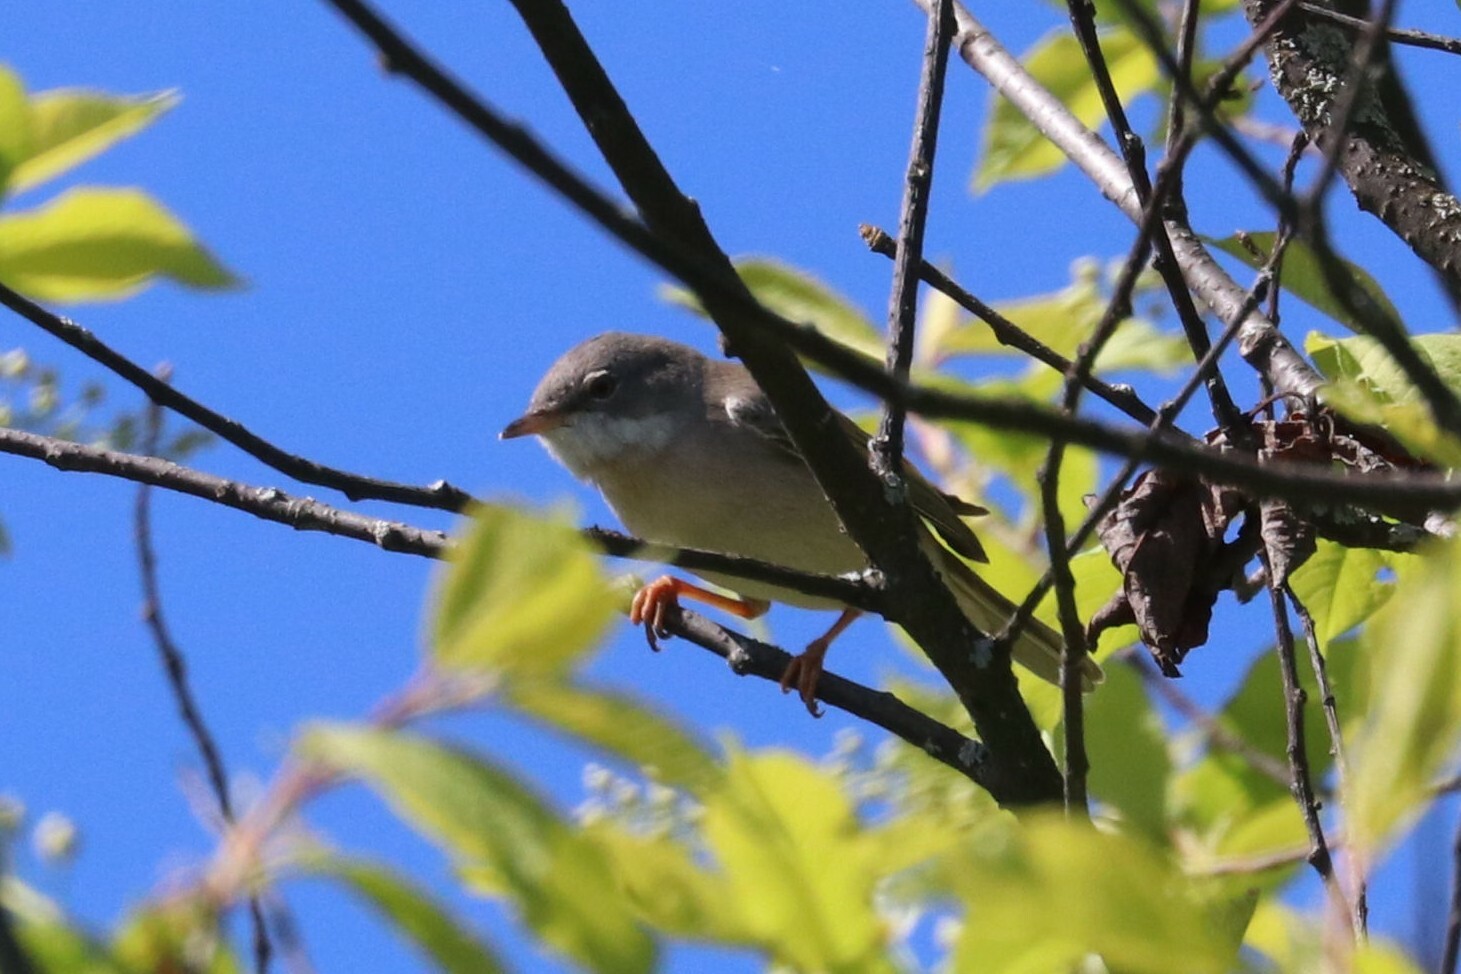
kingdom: Animalia
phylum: Chordata
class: Aves
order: Passeriformes
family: Sylviidae
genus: Sylvia
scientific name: Sylvia communis
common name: Common whitethroat
